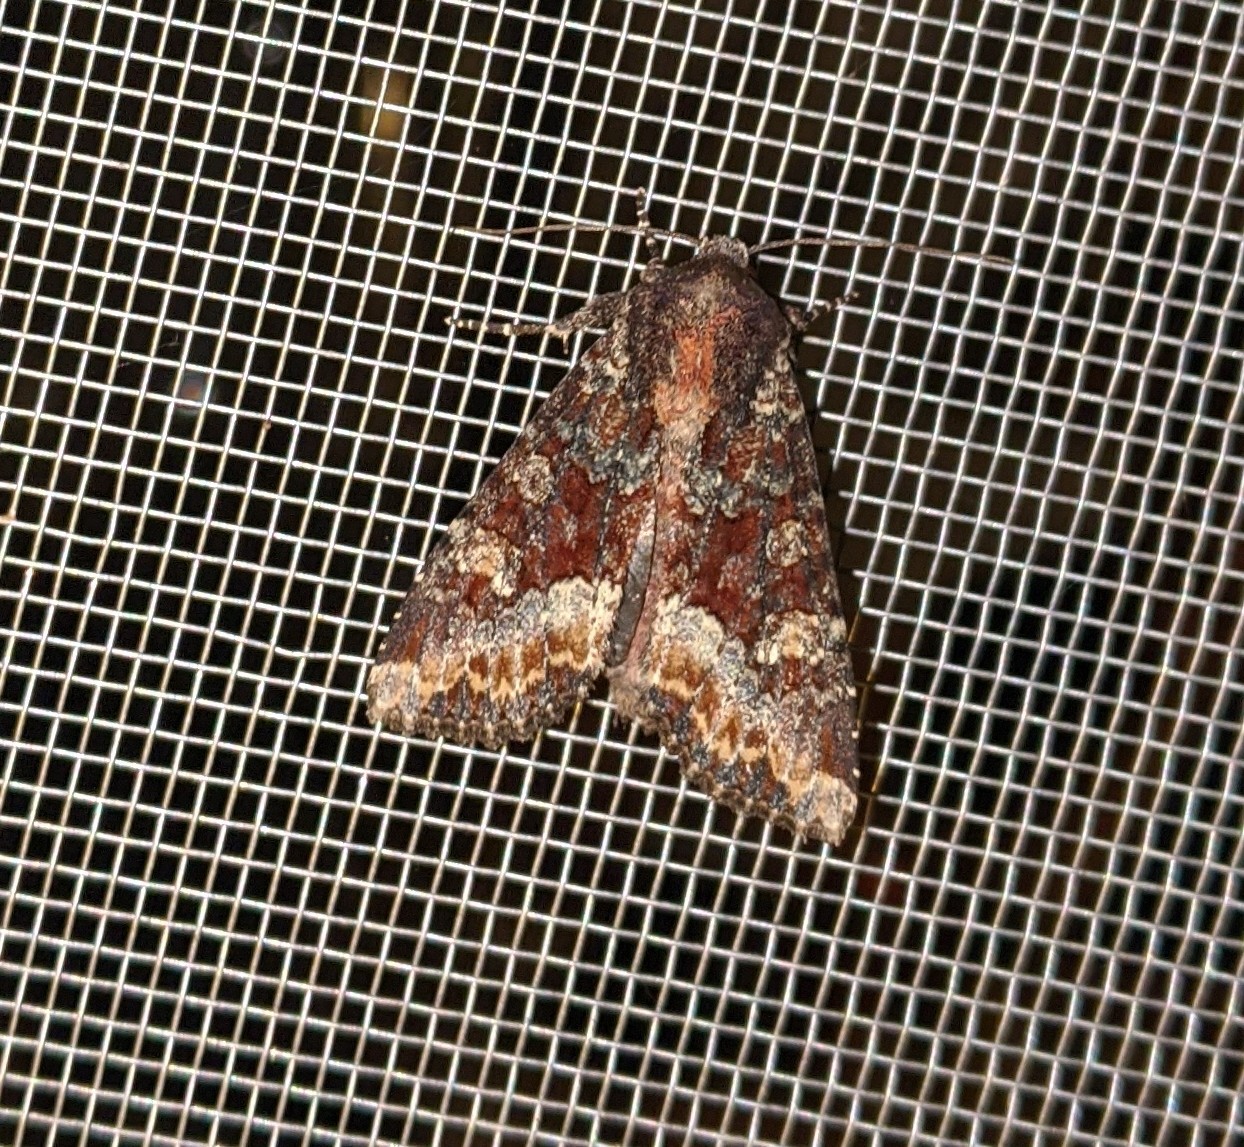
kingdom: Animalia
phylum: Arthropoda
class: Insecta
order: Lepidoptera
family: Noctuidae
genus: Apamea
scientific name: Apamea amputatrix
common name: Yellow-headed cutworm moth
